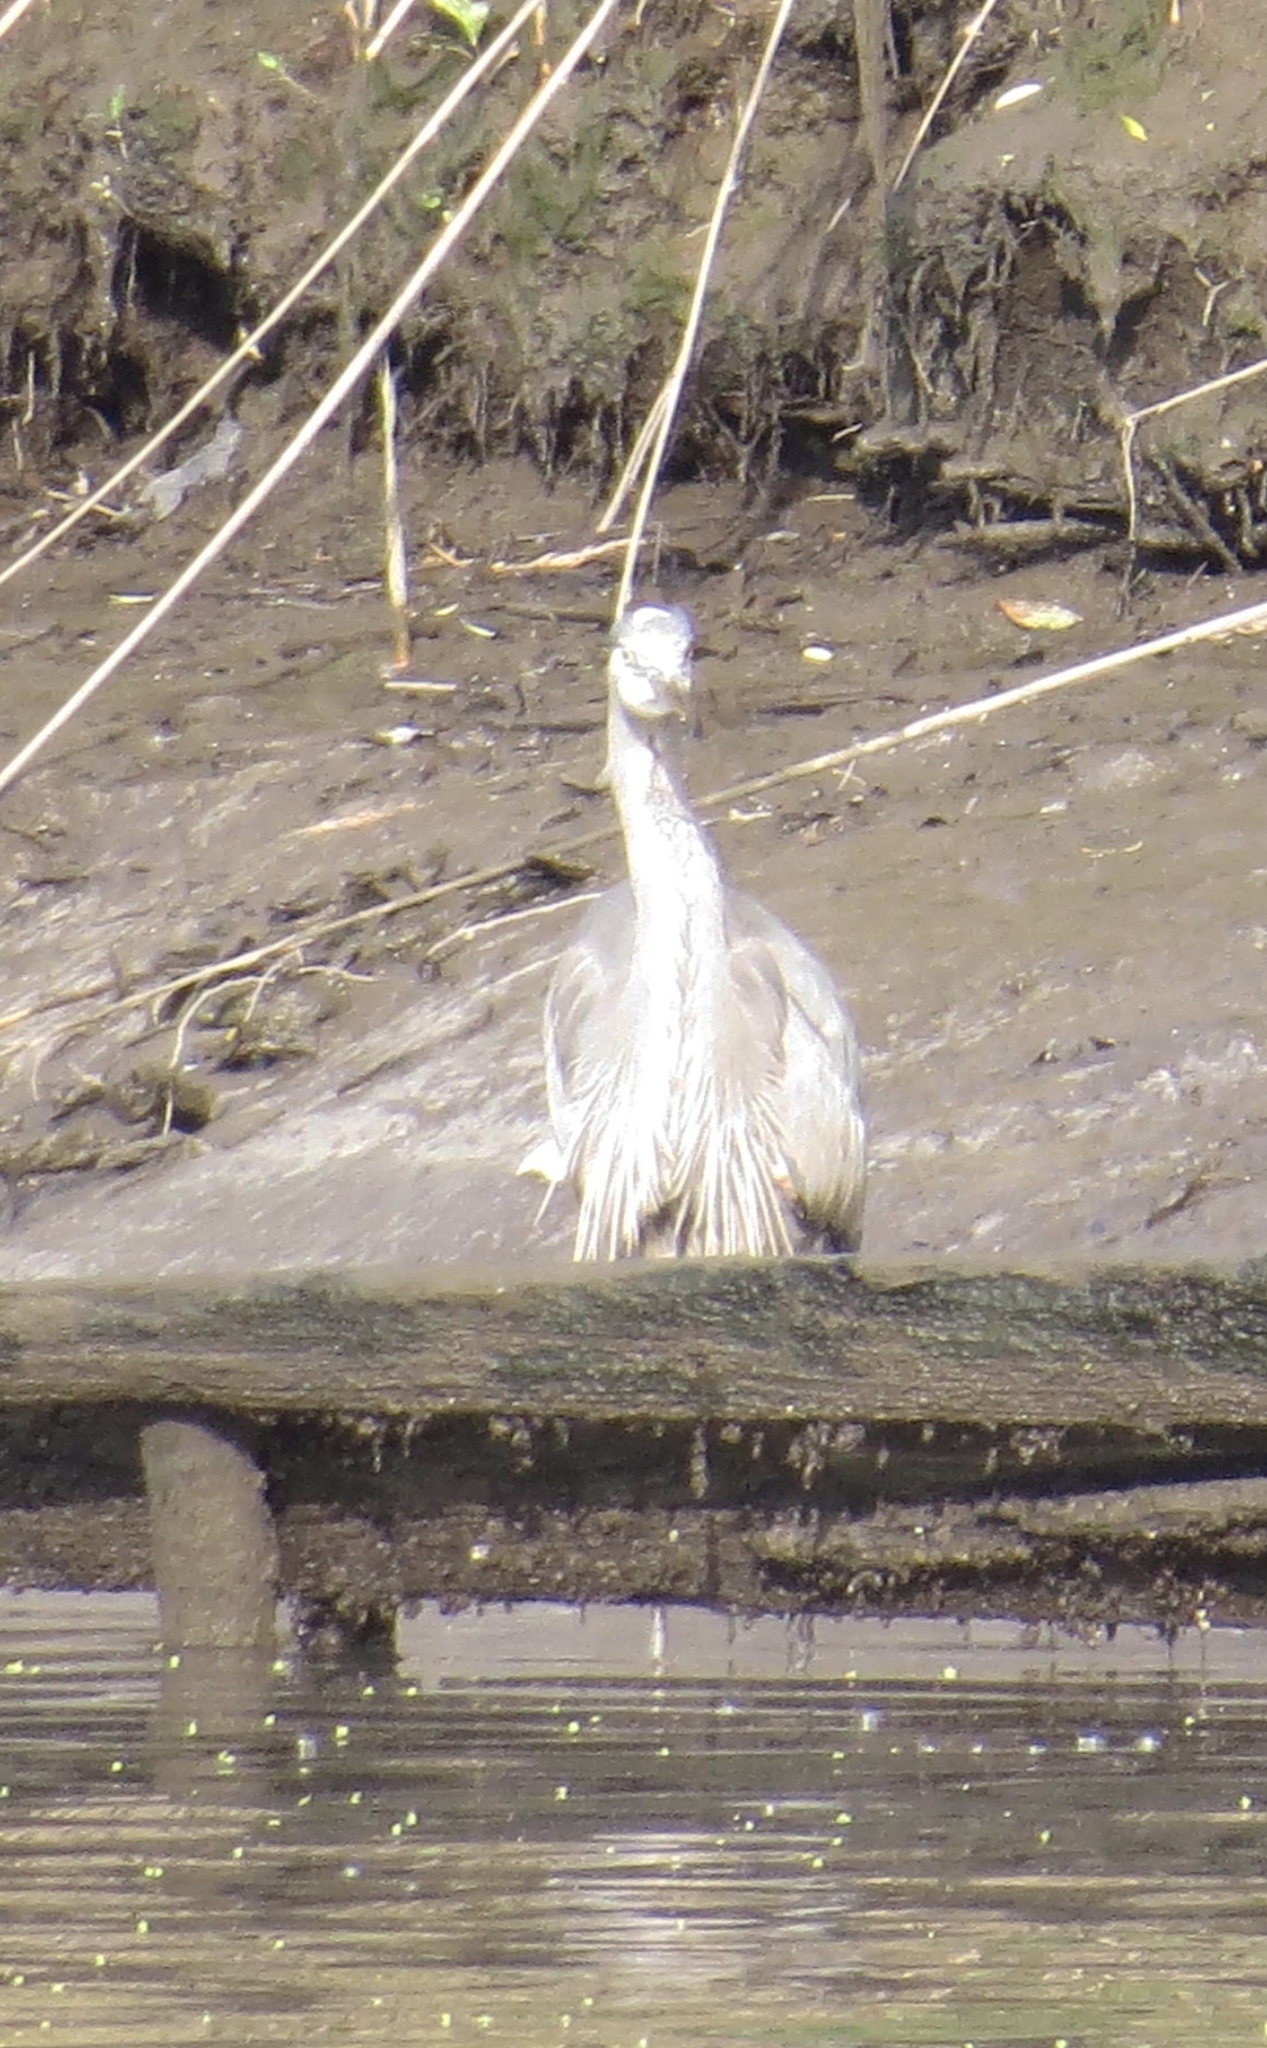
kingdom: Animalia
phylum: Chordata
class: Aves
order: Pelecaniformes
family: Ardeidae
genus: Ardea
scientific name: Ardea herodias
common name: Great blue heron
